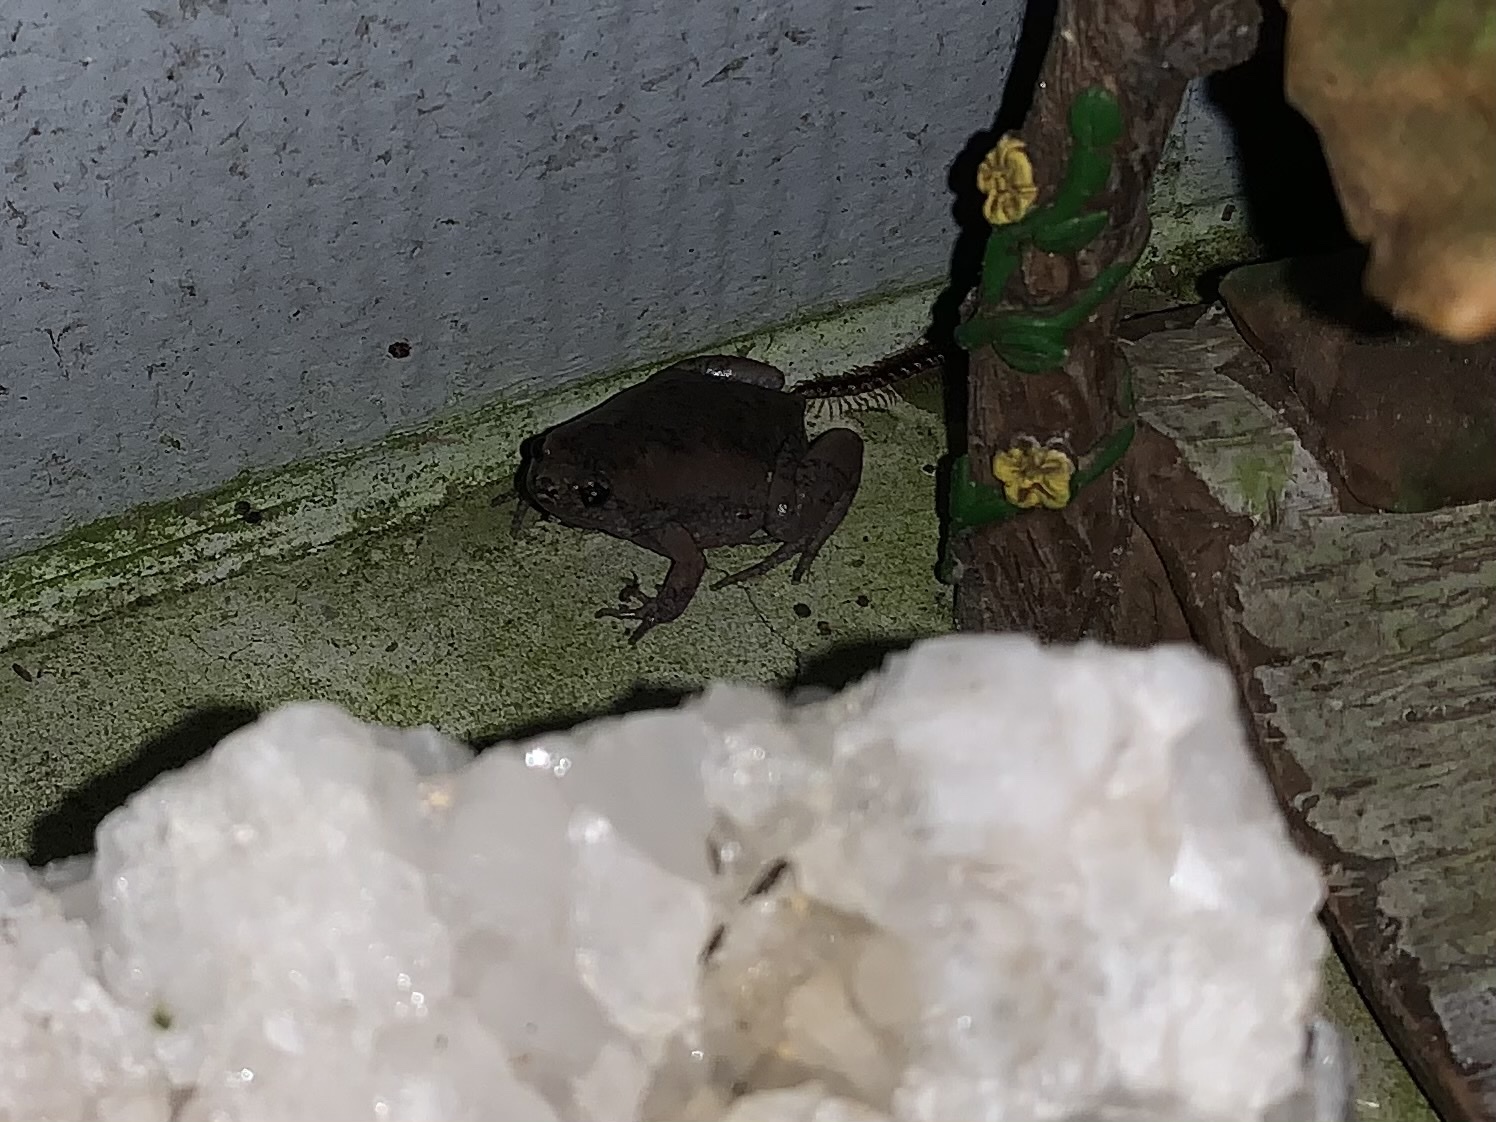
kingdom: Animalia
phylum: Chordata
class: Amphibia
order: Anura
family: Microhylidae
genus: Gastrophryne
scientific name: Gastrophryne carolinensis
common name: Eastern narrowmouth toad
